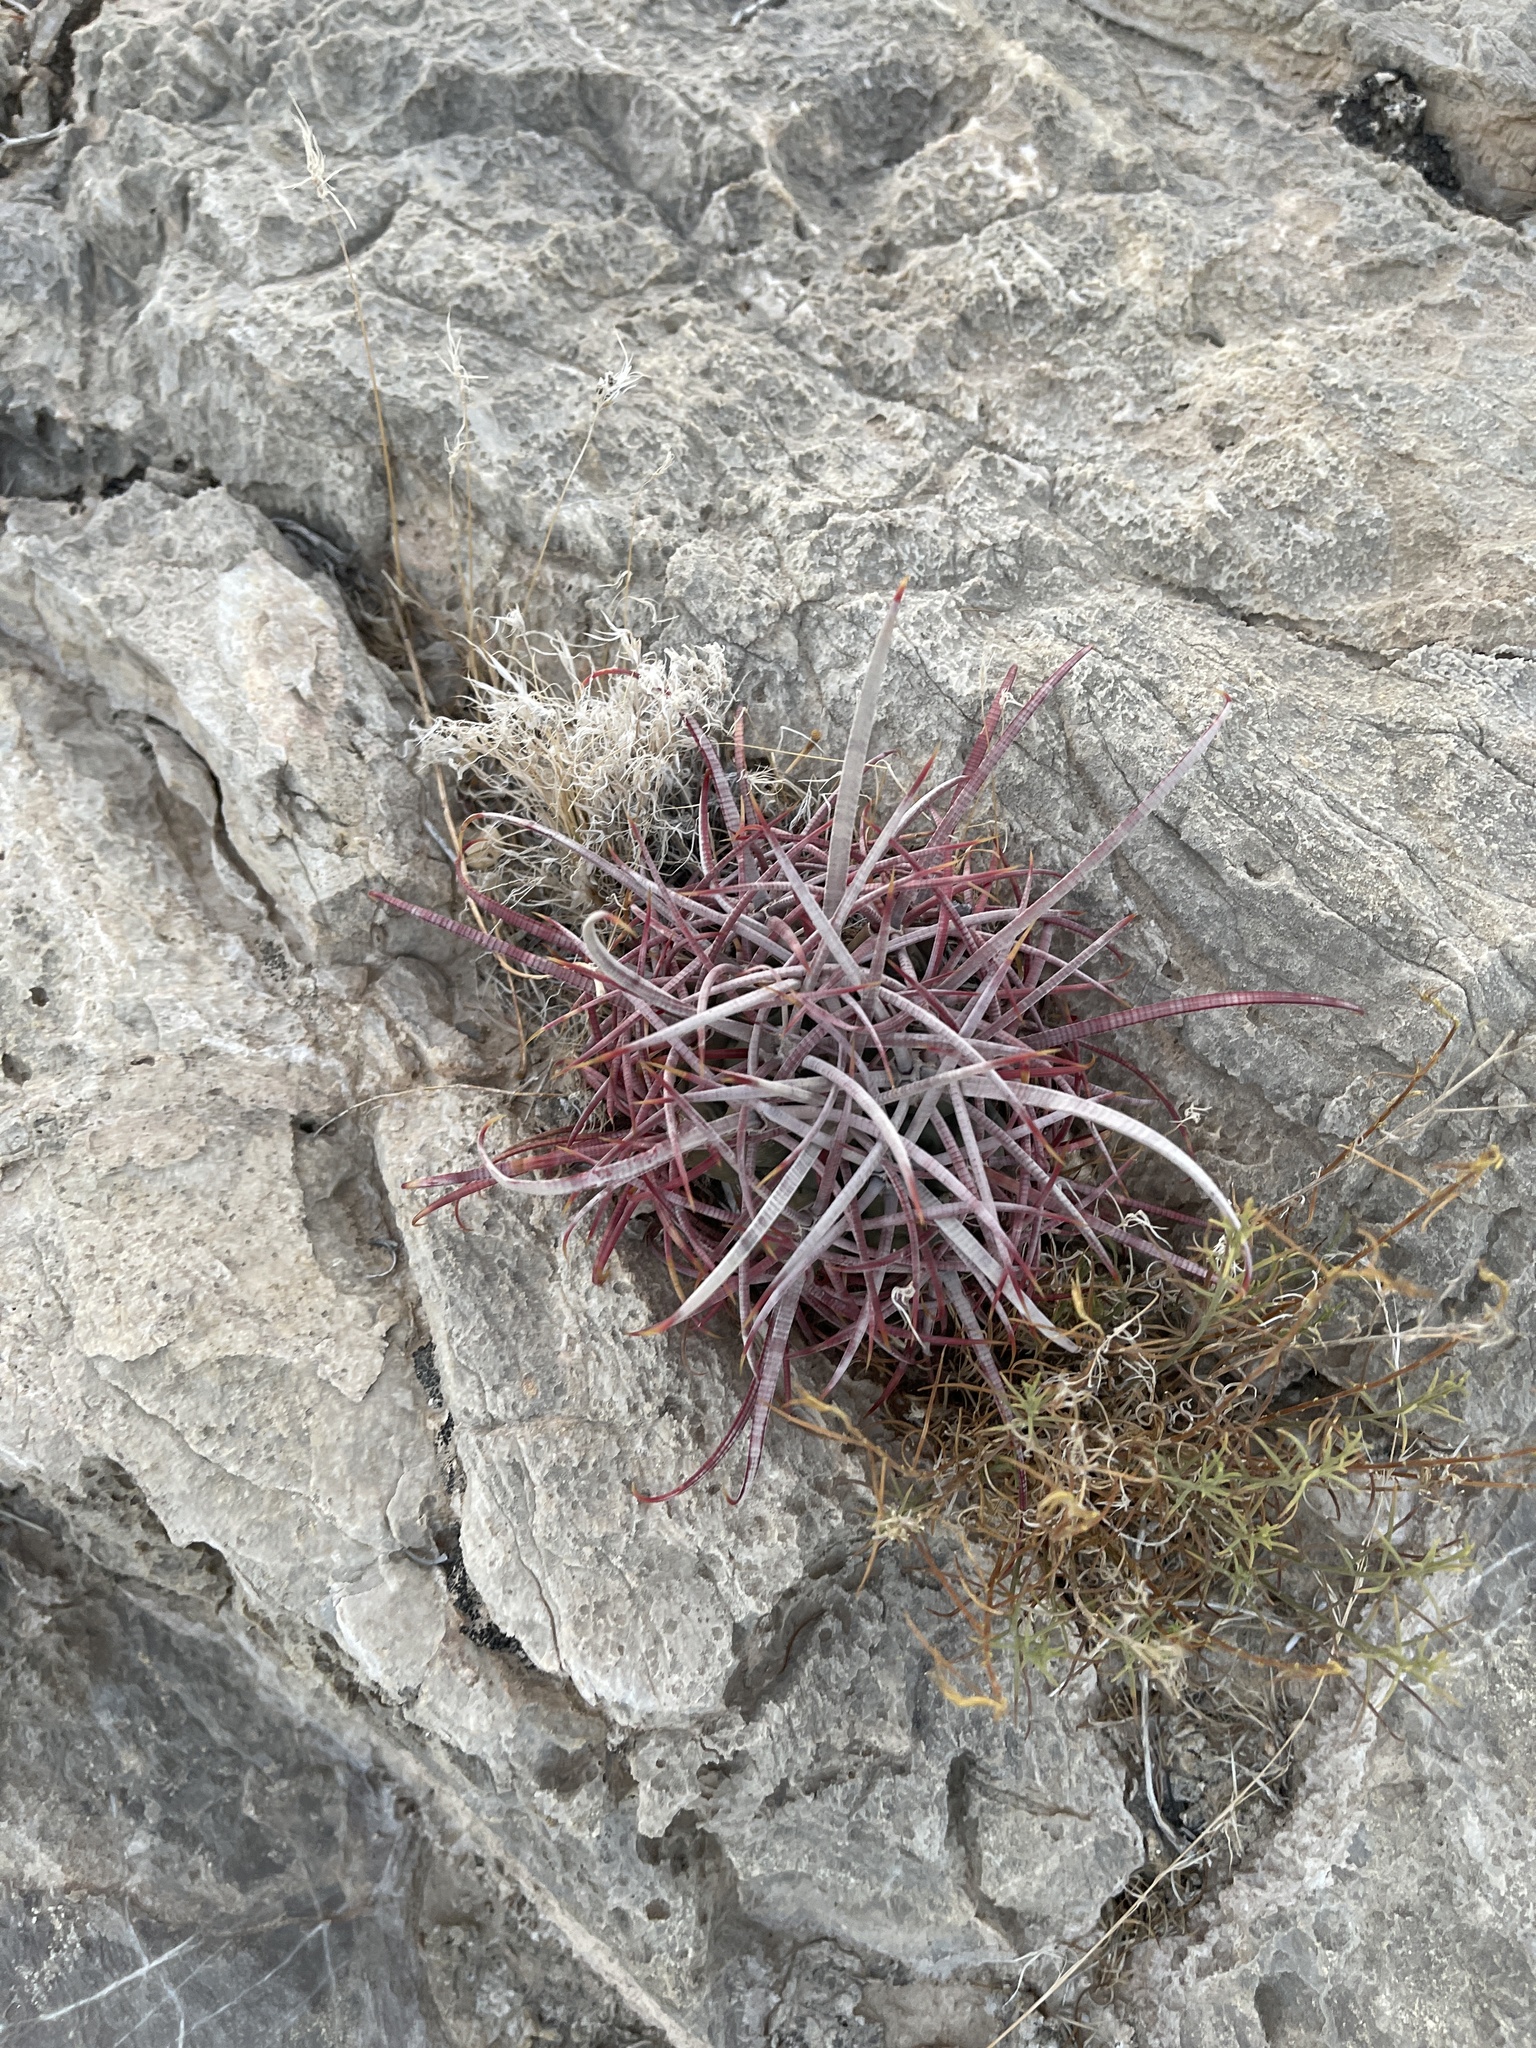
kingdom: Plantae
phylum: Tracheophyta
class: Magnoliopsida
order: Caryophyllales
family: Cactaceae
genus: Echinocactus
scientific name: Echinocactus polycephalus
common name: Cottontop cactus
